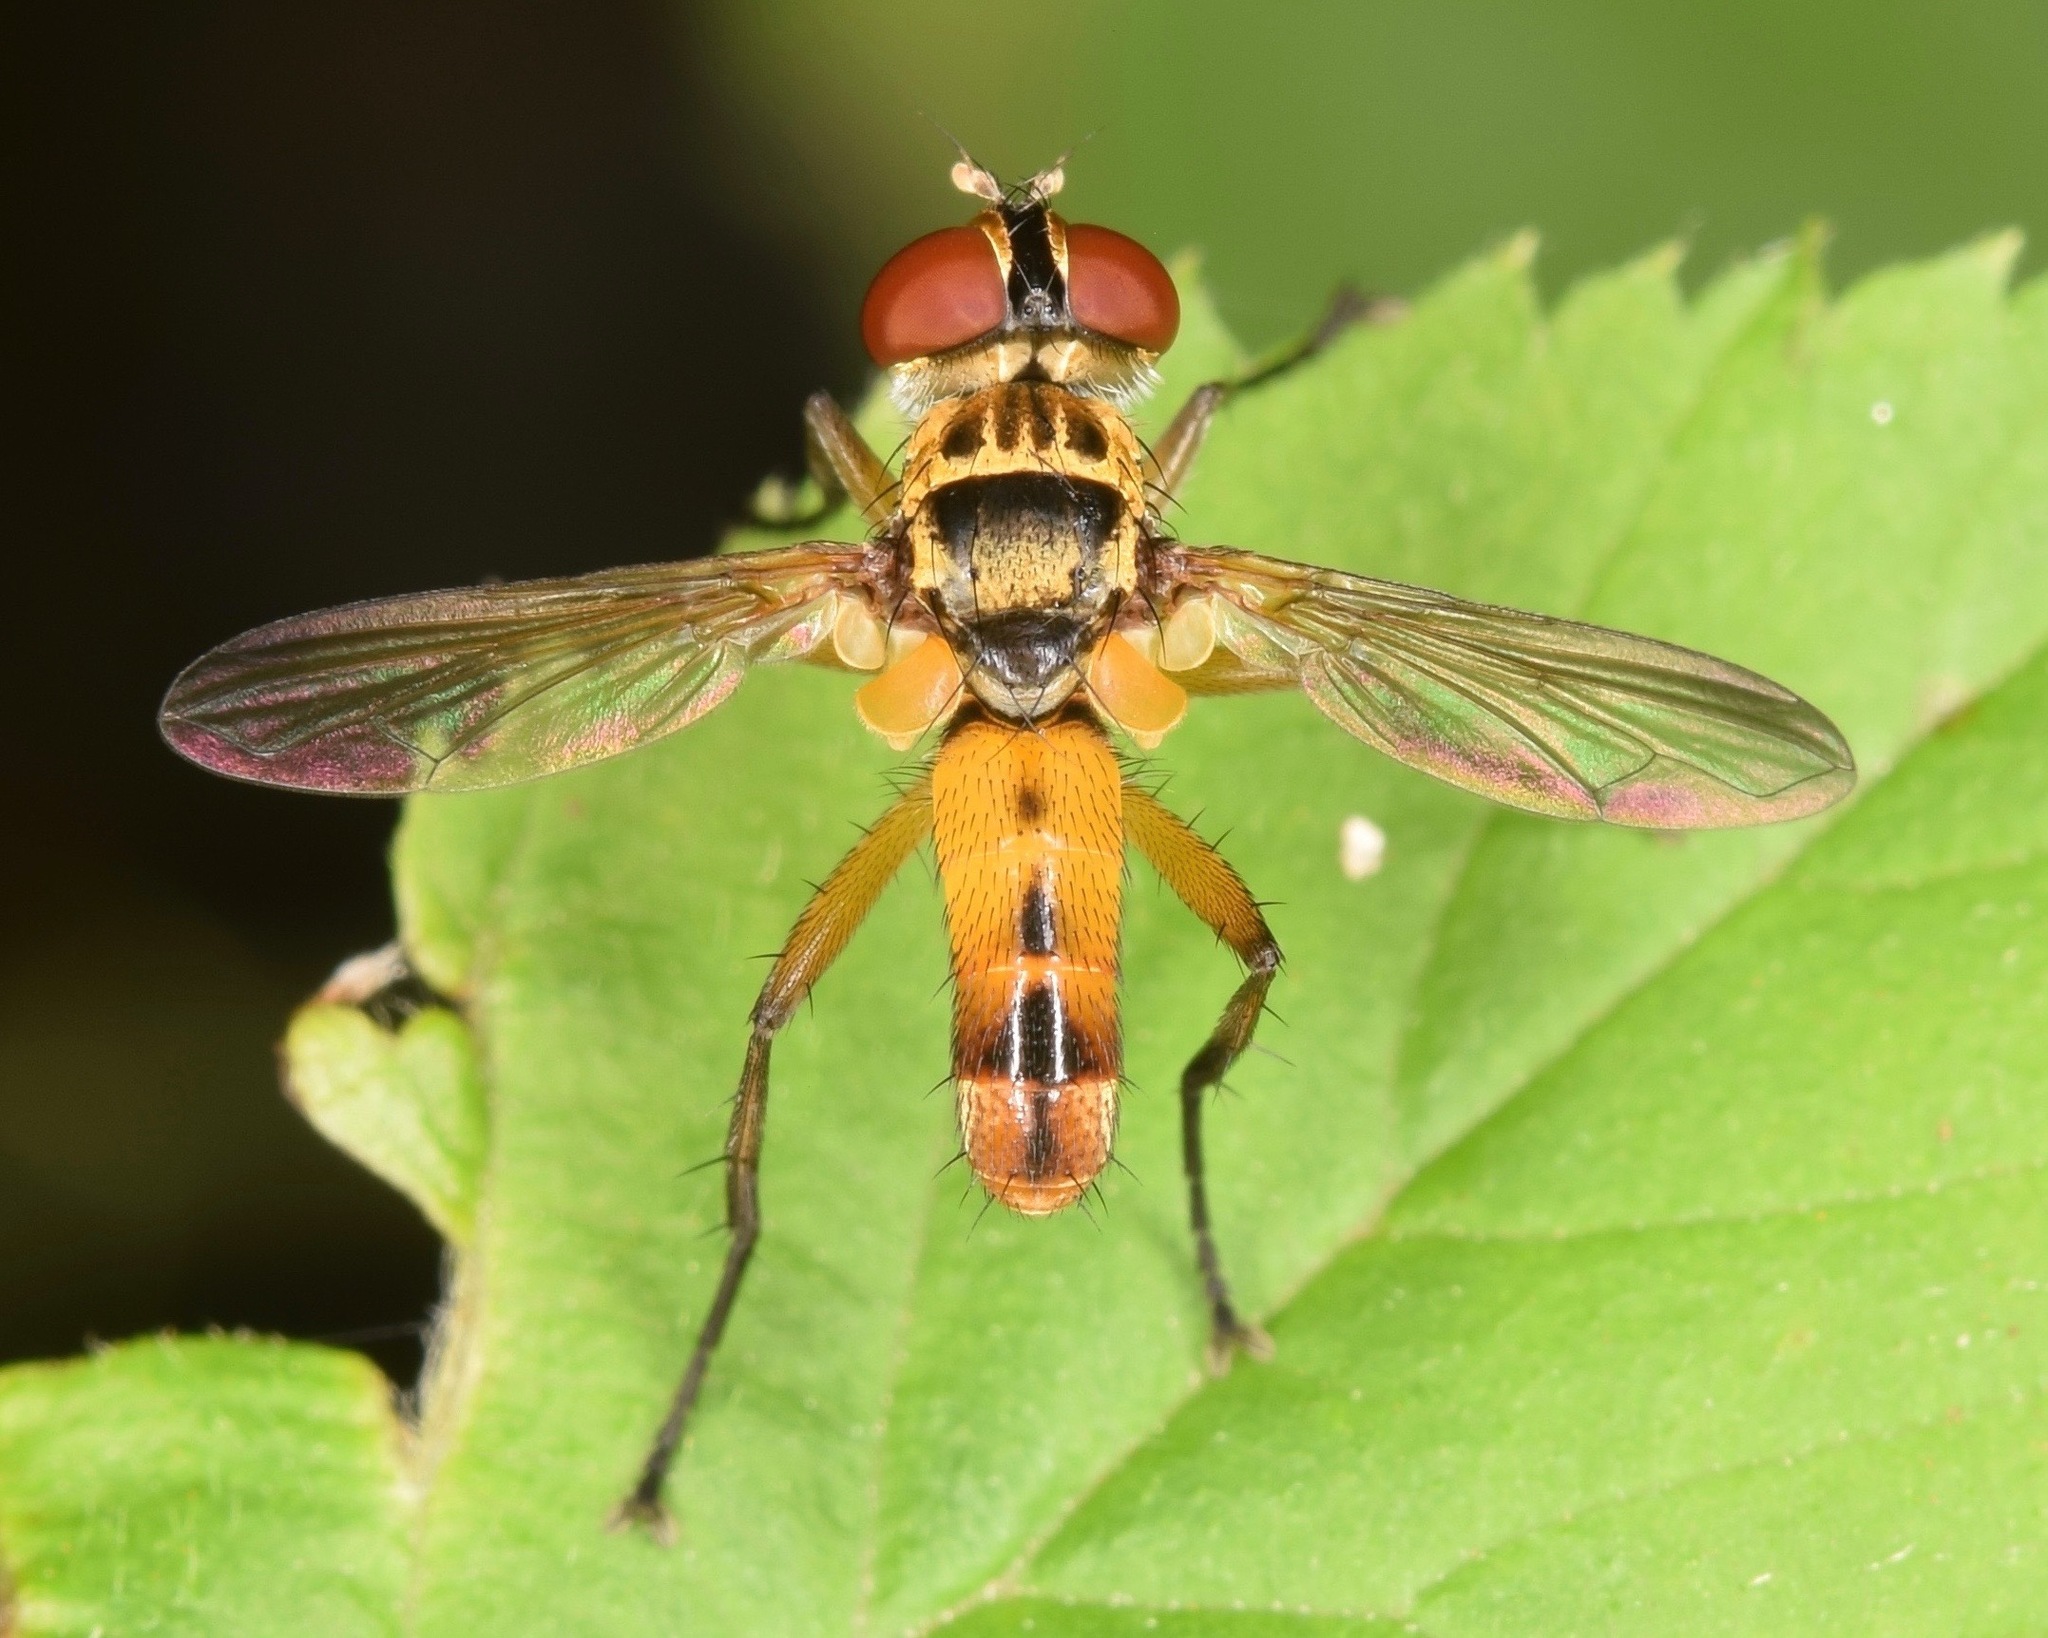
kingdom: Animalia
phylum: Arthropoda
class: Insecta
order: Diptera
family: Tachinidae
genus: Xanthomelanodes
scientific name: Xanthomelanodes flavipes
